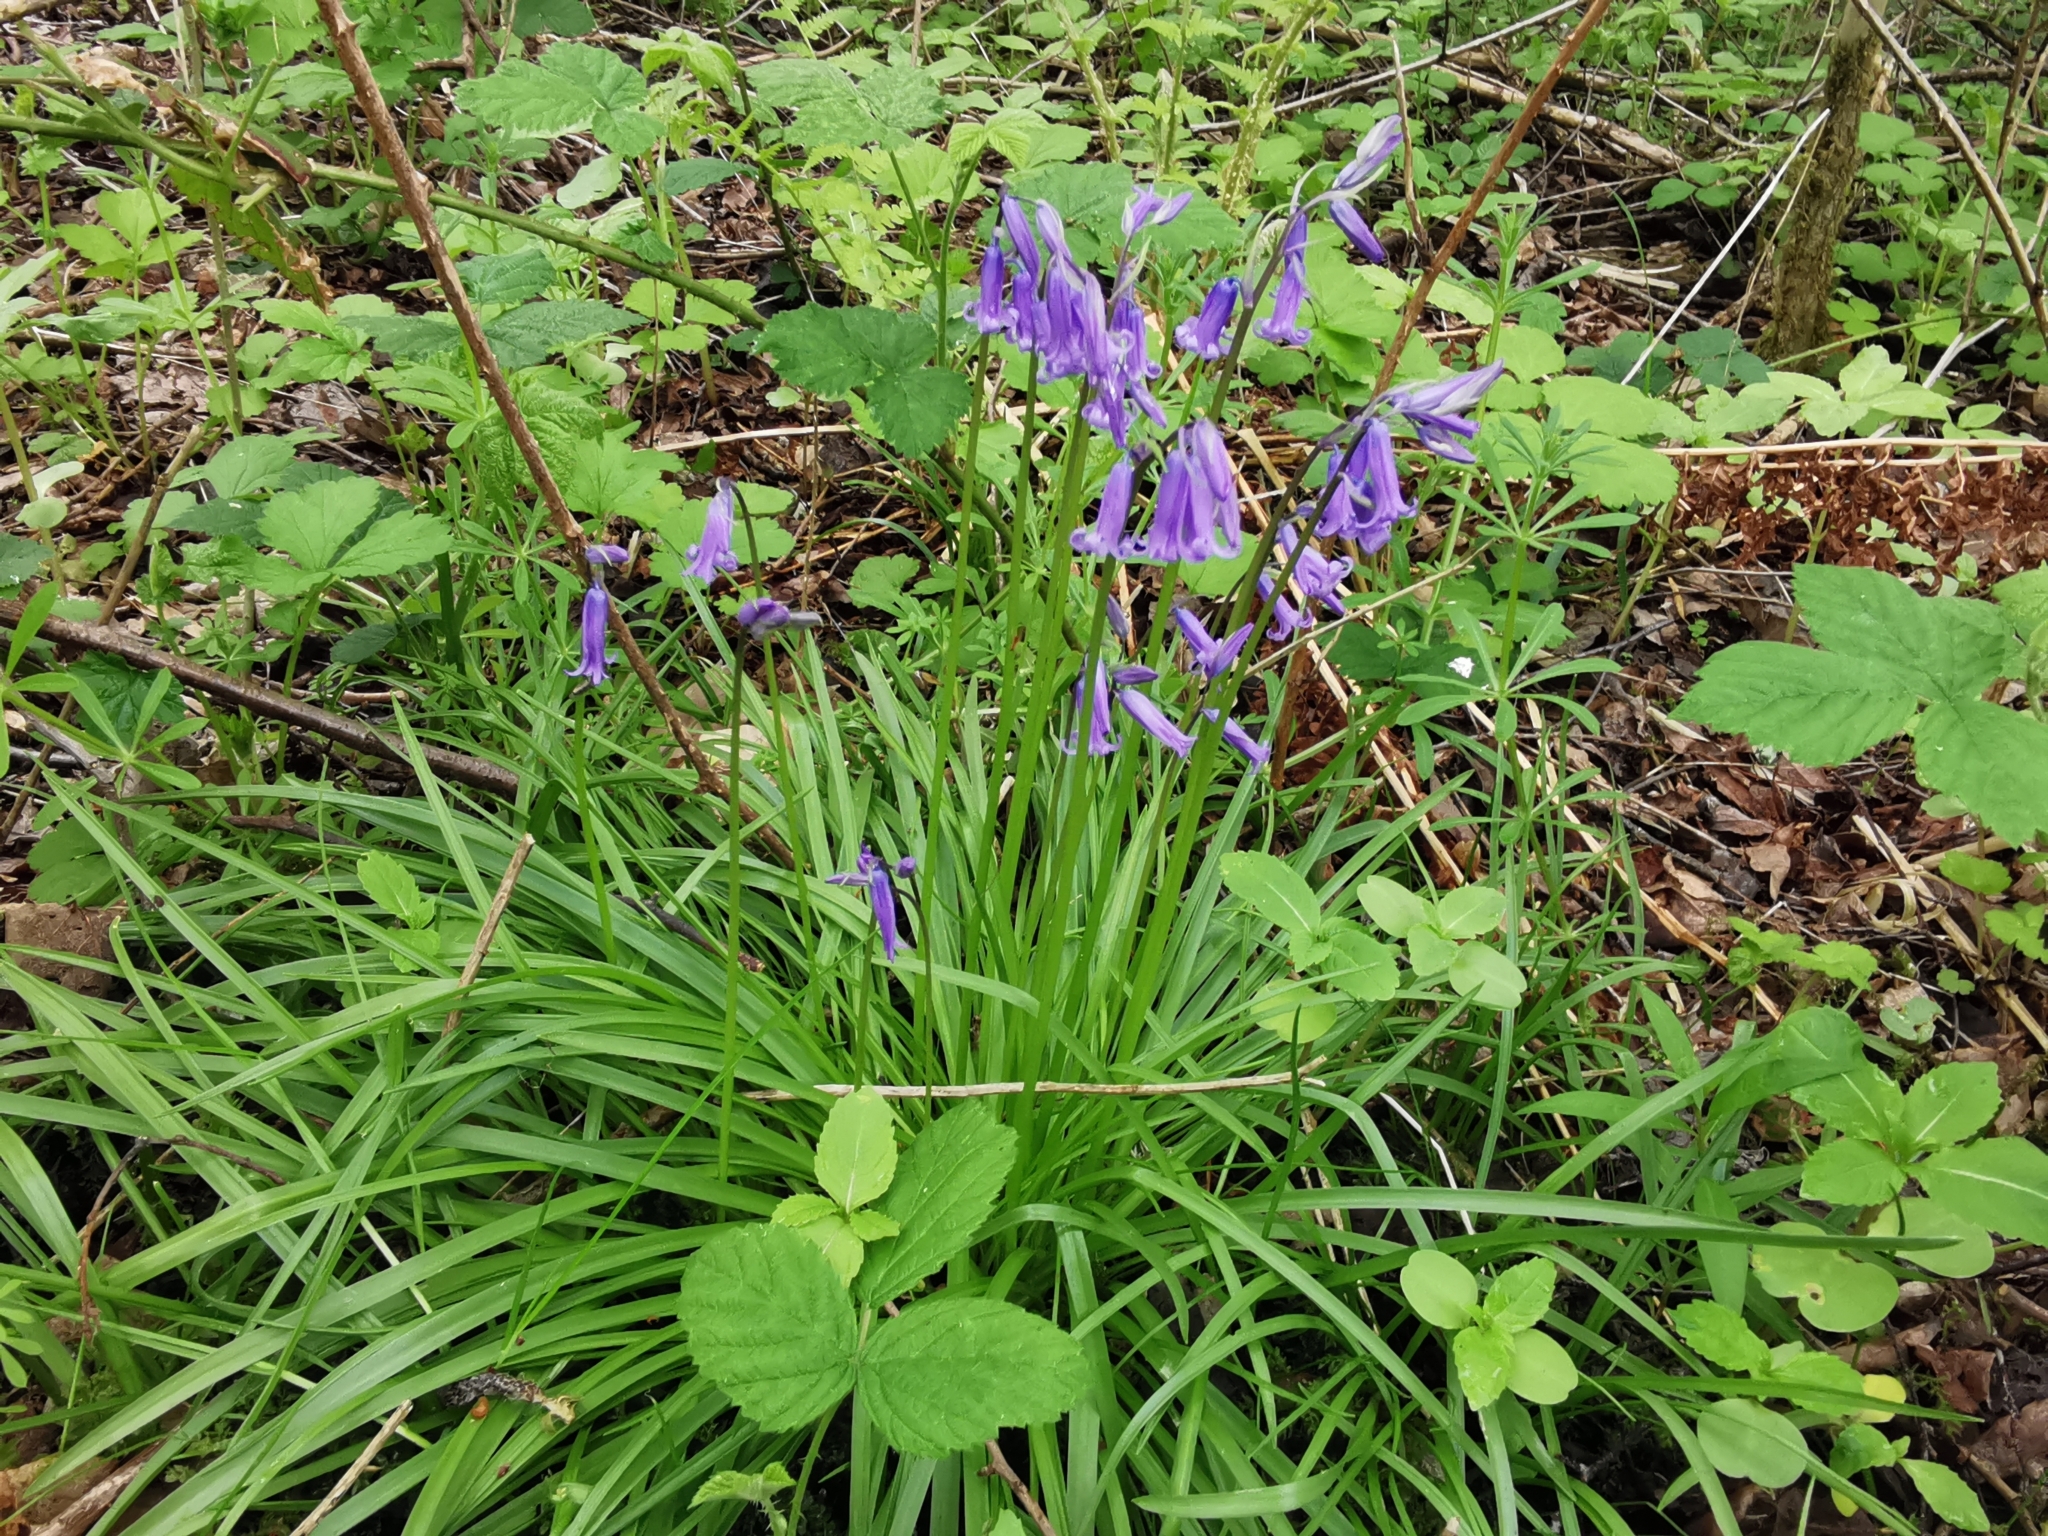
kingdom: Plantae
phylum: Tracheophyta
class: Liliopsida
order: Asparagales
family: Asparagaceae
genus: Hyacinthoides
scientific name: Hyacinthoides non-scripta
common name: Bluebell
